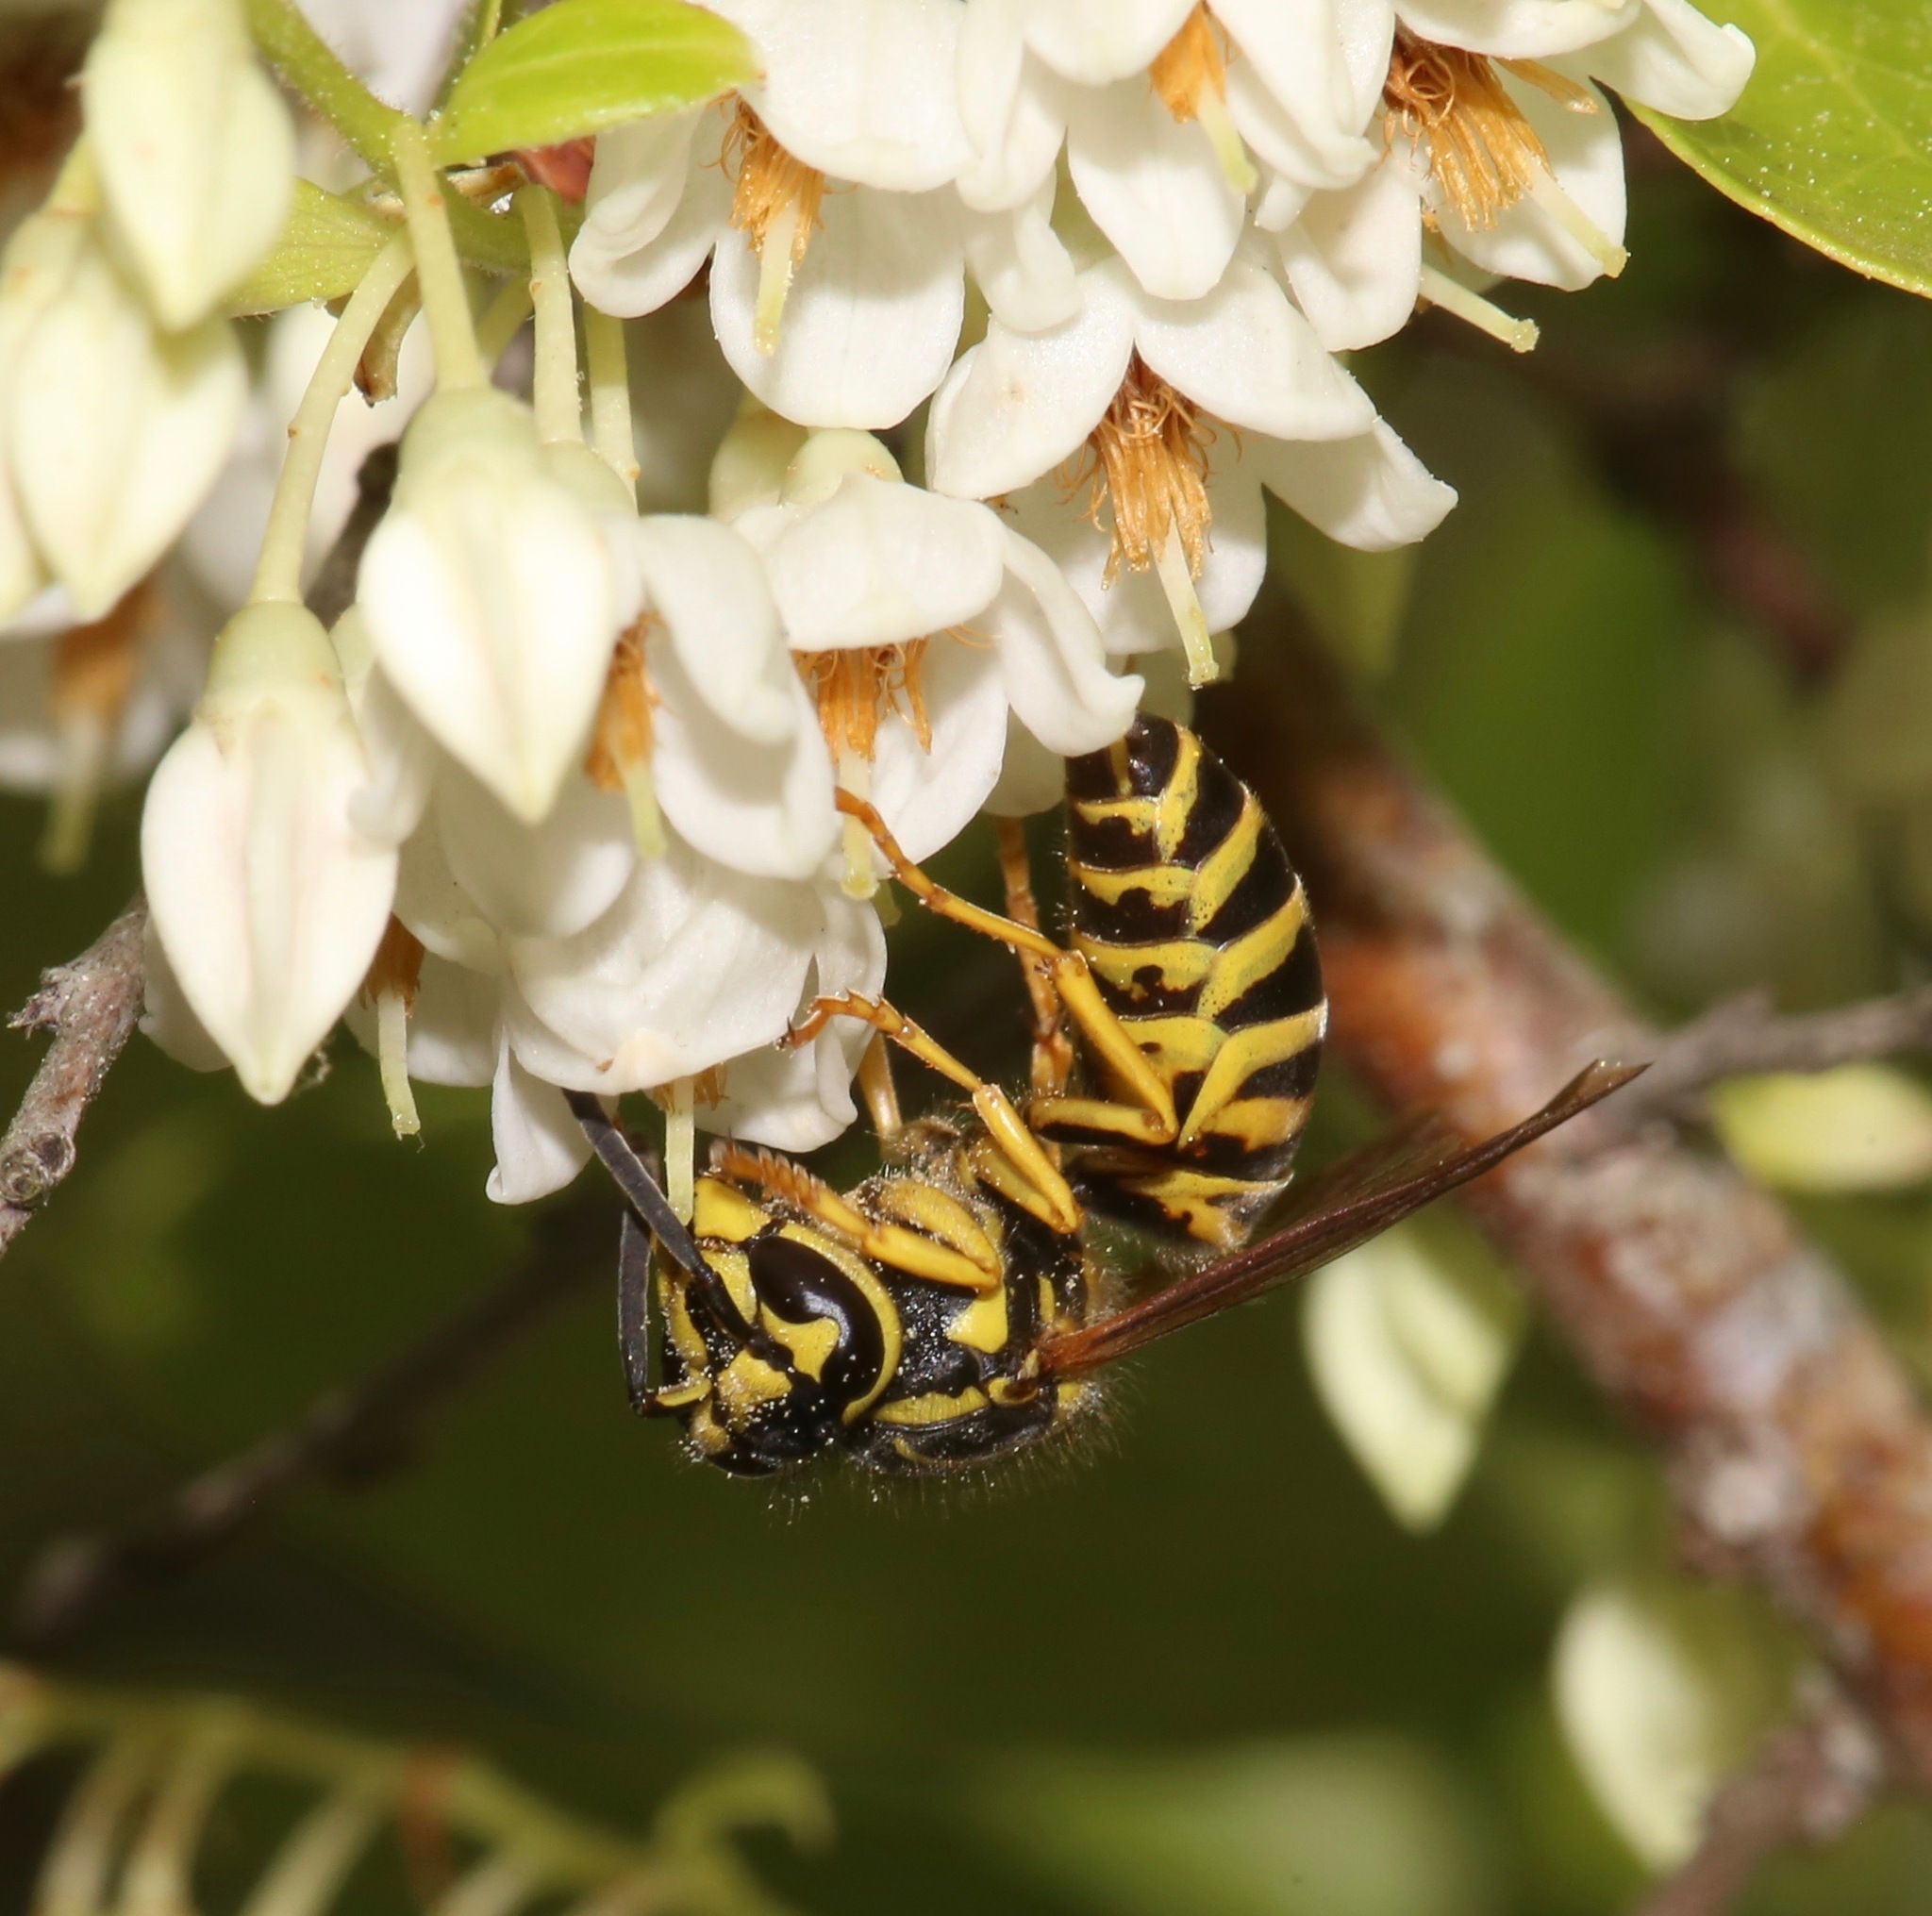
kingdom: Animalia
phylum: Arthropoda
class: Insecta
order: Hymenoptera
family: Vespidae
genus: Vespula
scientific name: Vespula squamosa
